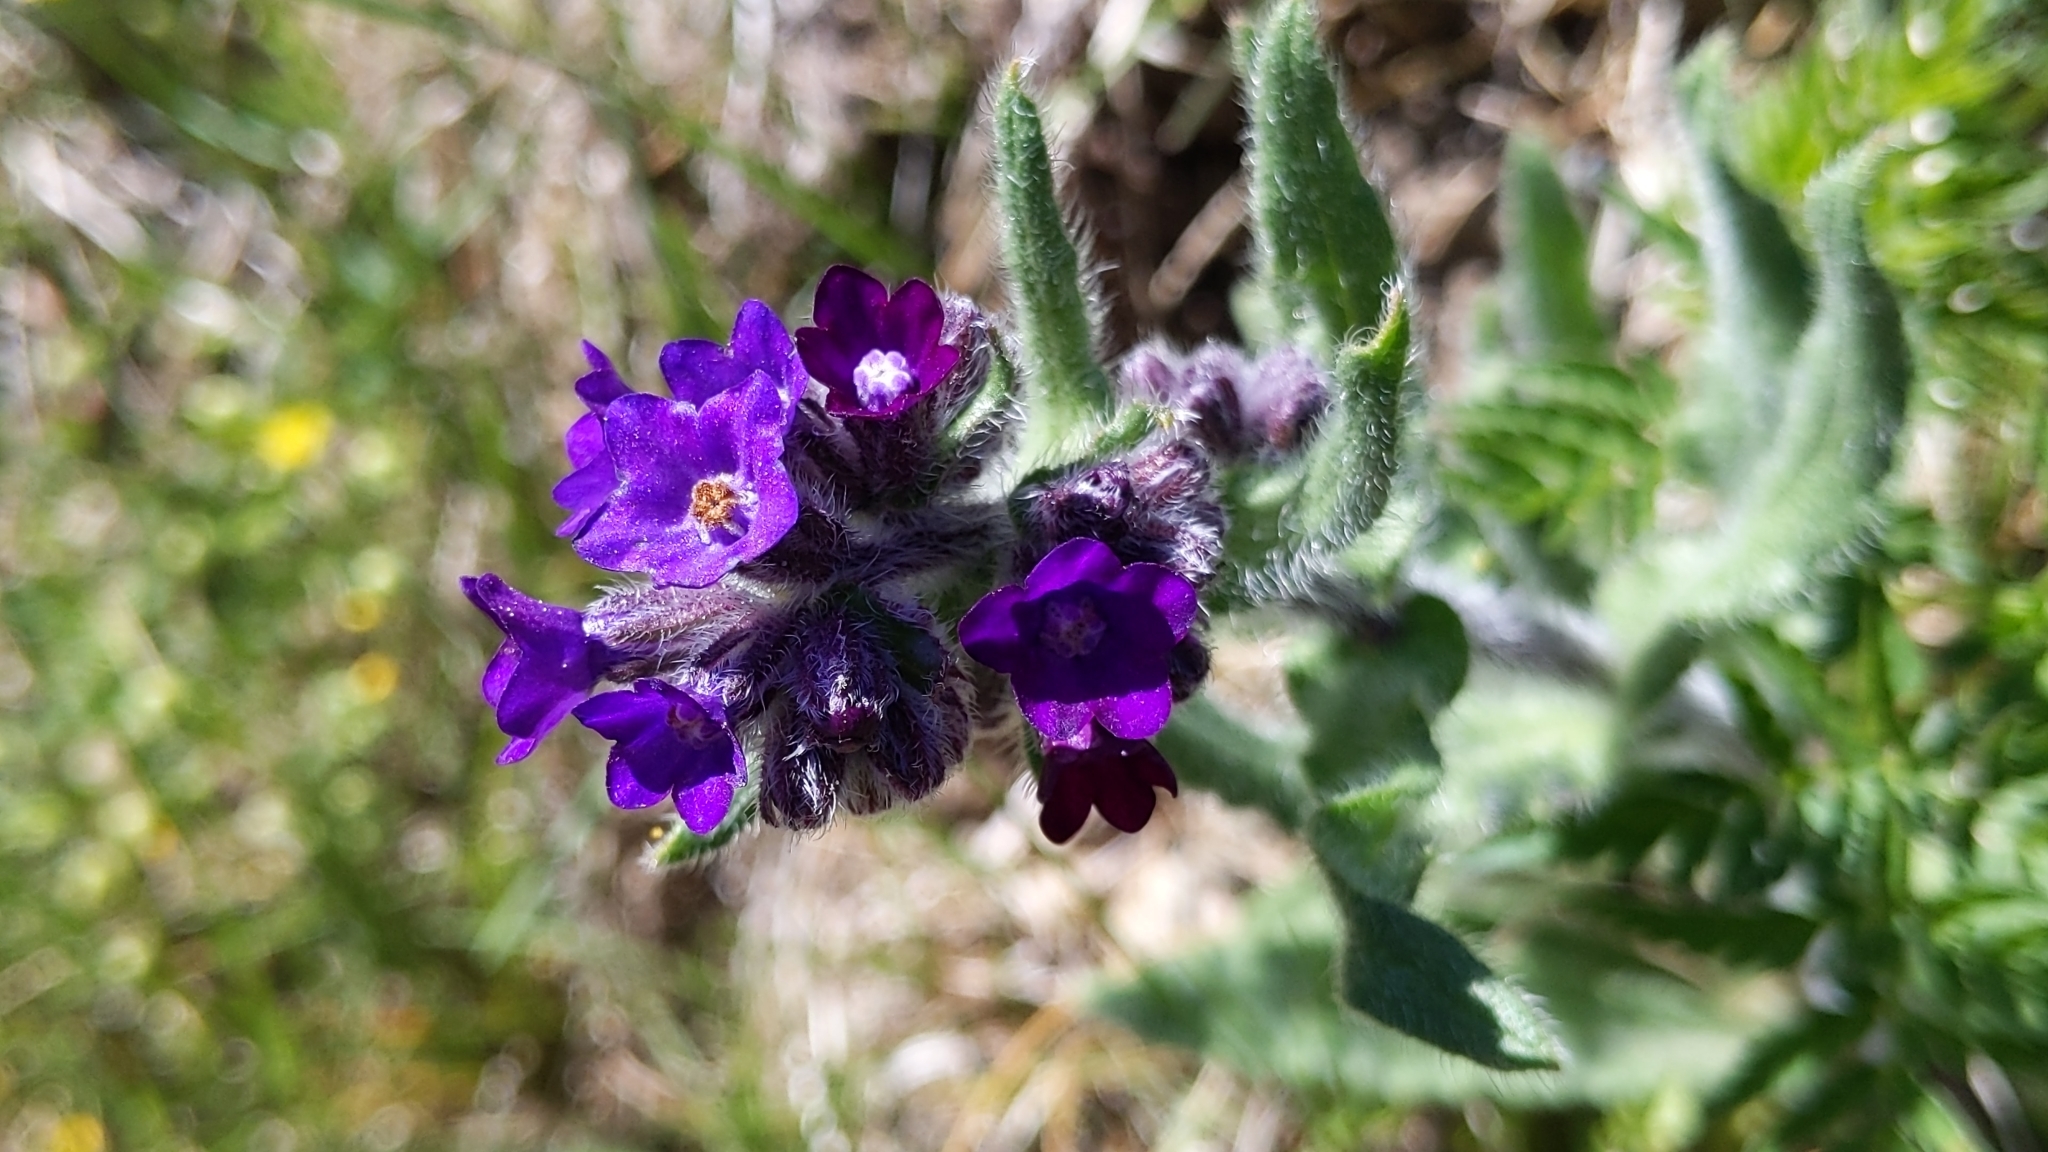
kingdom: Plantae
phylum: Tracheophyta
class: Magnoliopsida
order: Boraginales
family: Boraginaceae
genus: Anchusa
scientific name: Anchusa officinalis
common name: Alkanet
